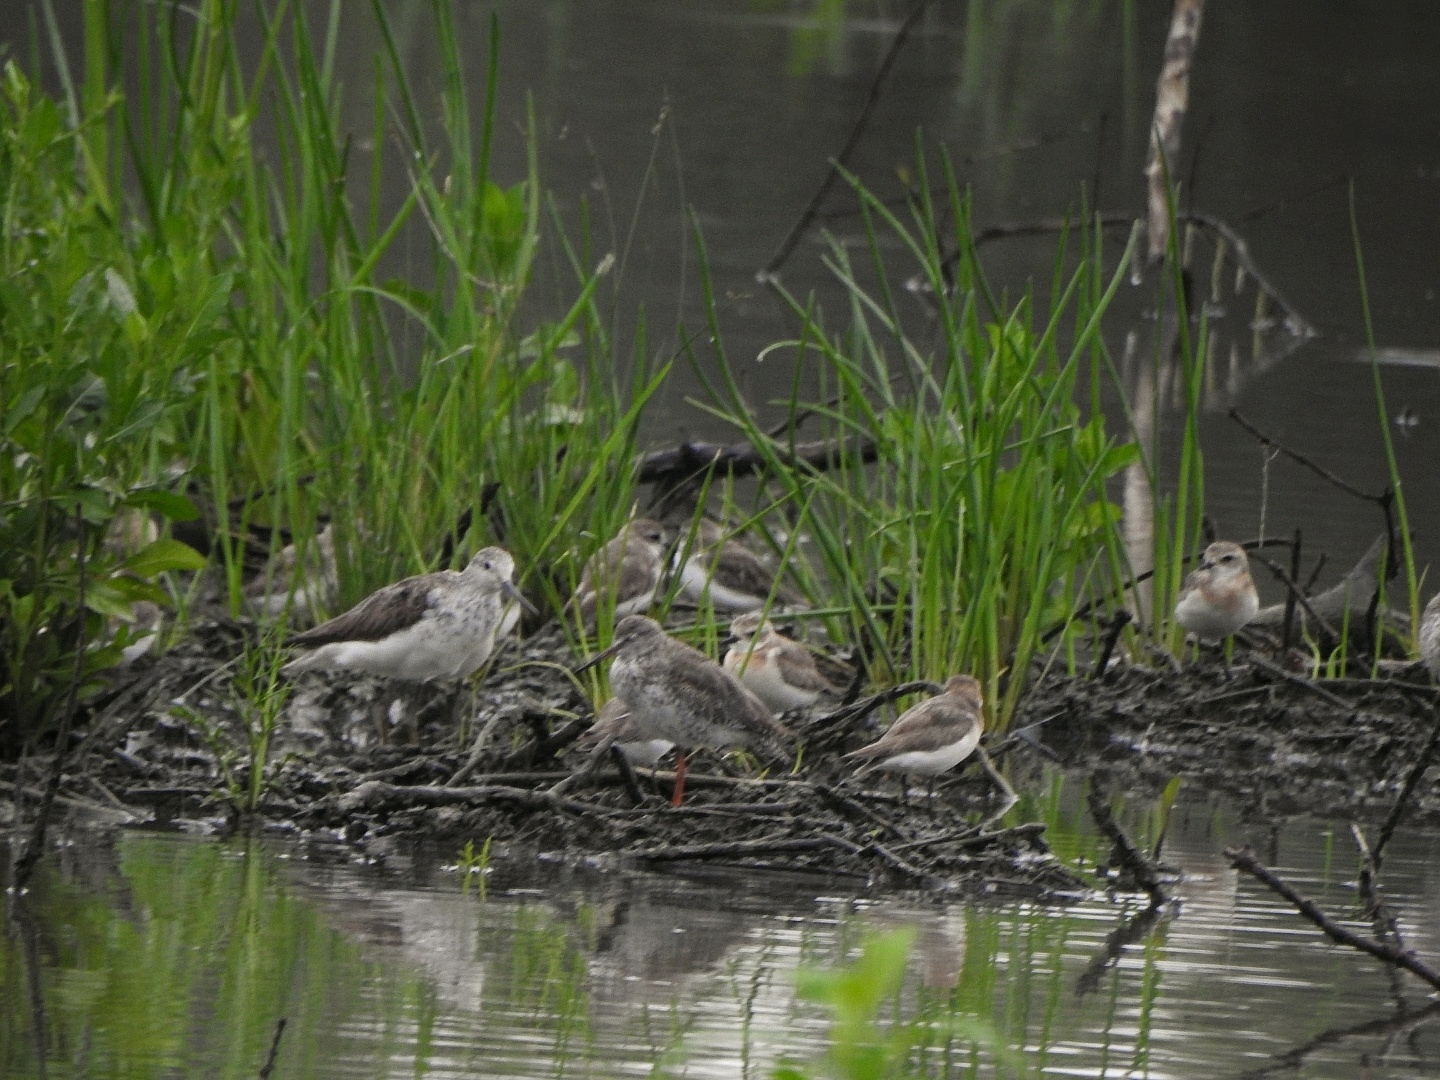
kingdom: Animalia
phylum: Chordata
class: Aves
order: Charadriiformes
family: Scolopacidae
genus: Tringa
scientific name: Tringa nebularia
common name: Common greenshank
